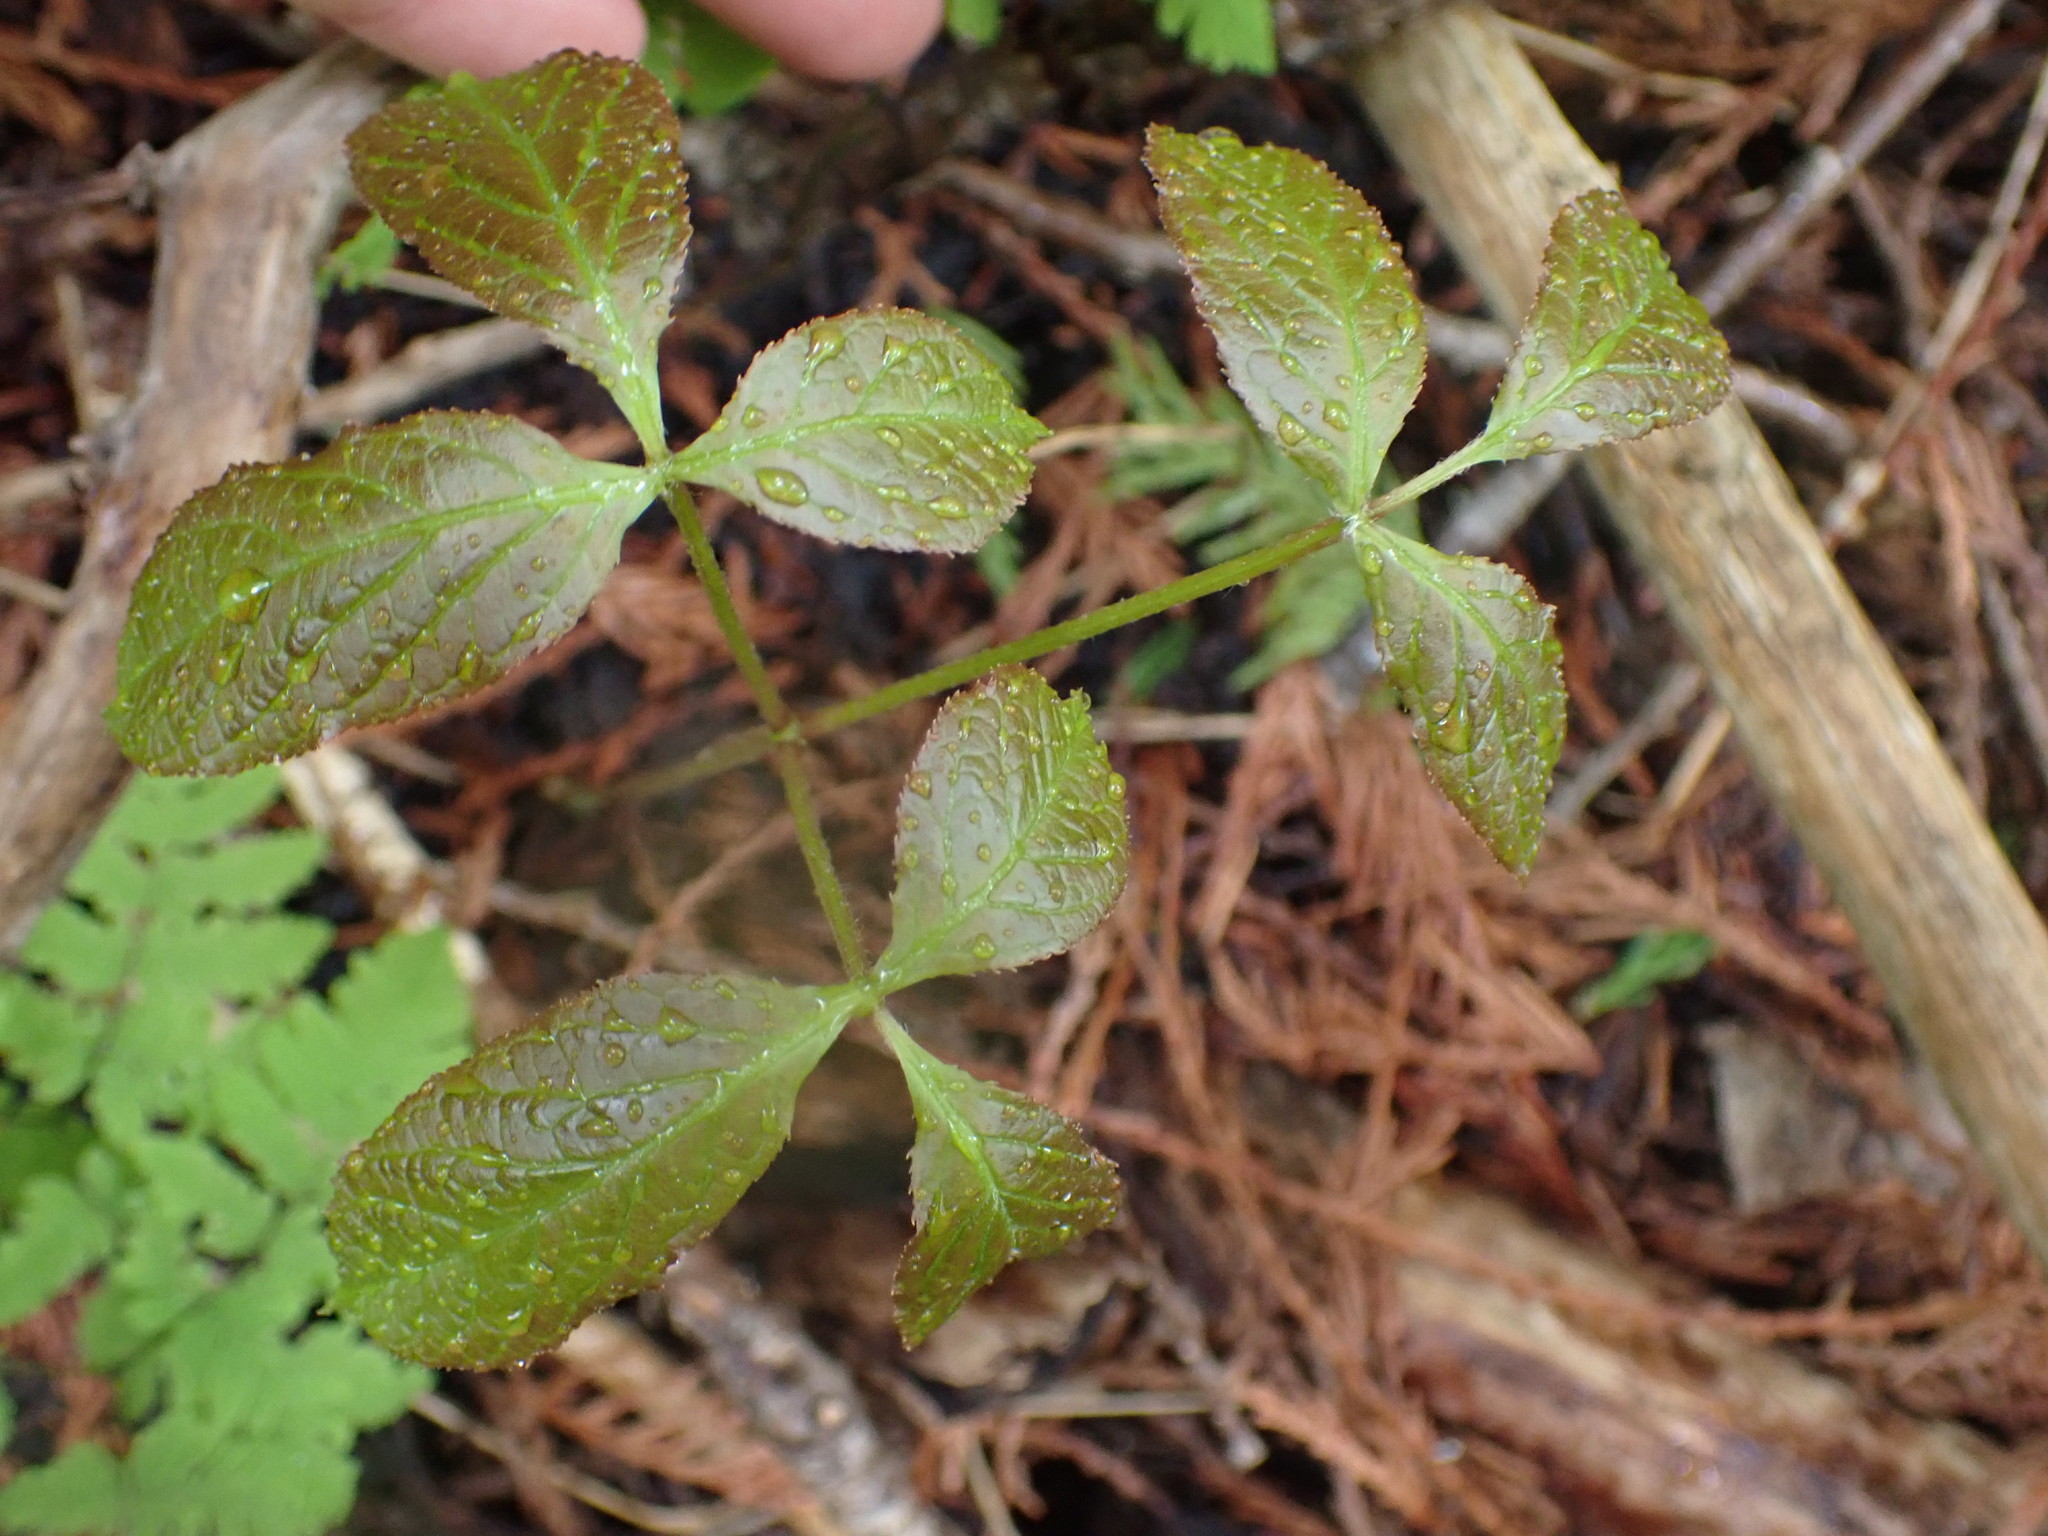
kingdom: Plantae
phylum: Tracheophyta
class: Magnoliopsida
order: Apiales
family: Araliaceae
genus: Aralia
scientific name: Aralia nudicaulis
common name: Wild sarsaparilla
